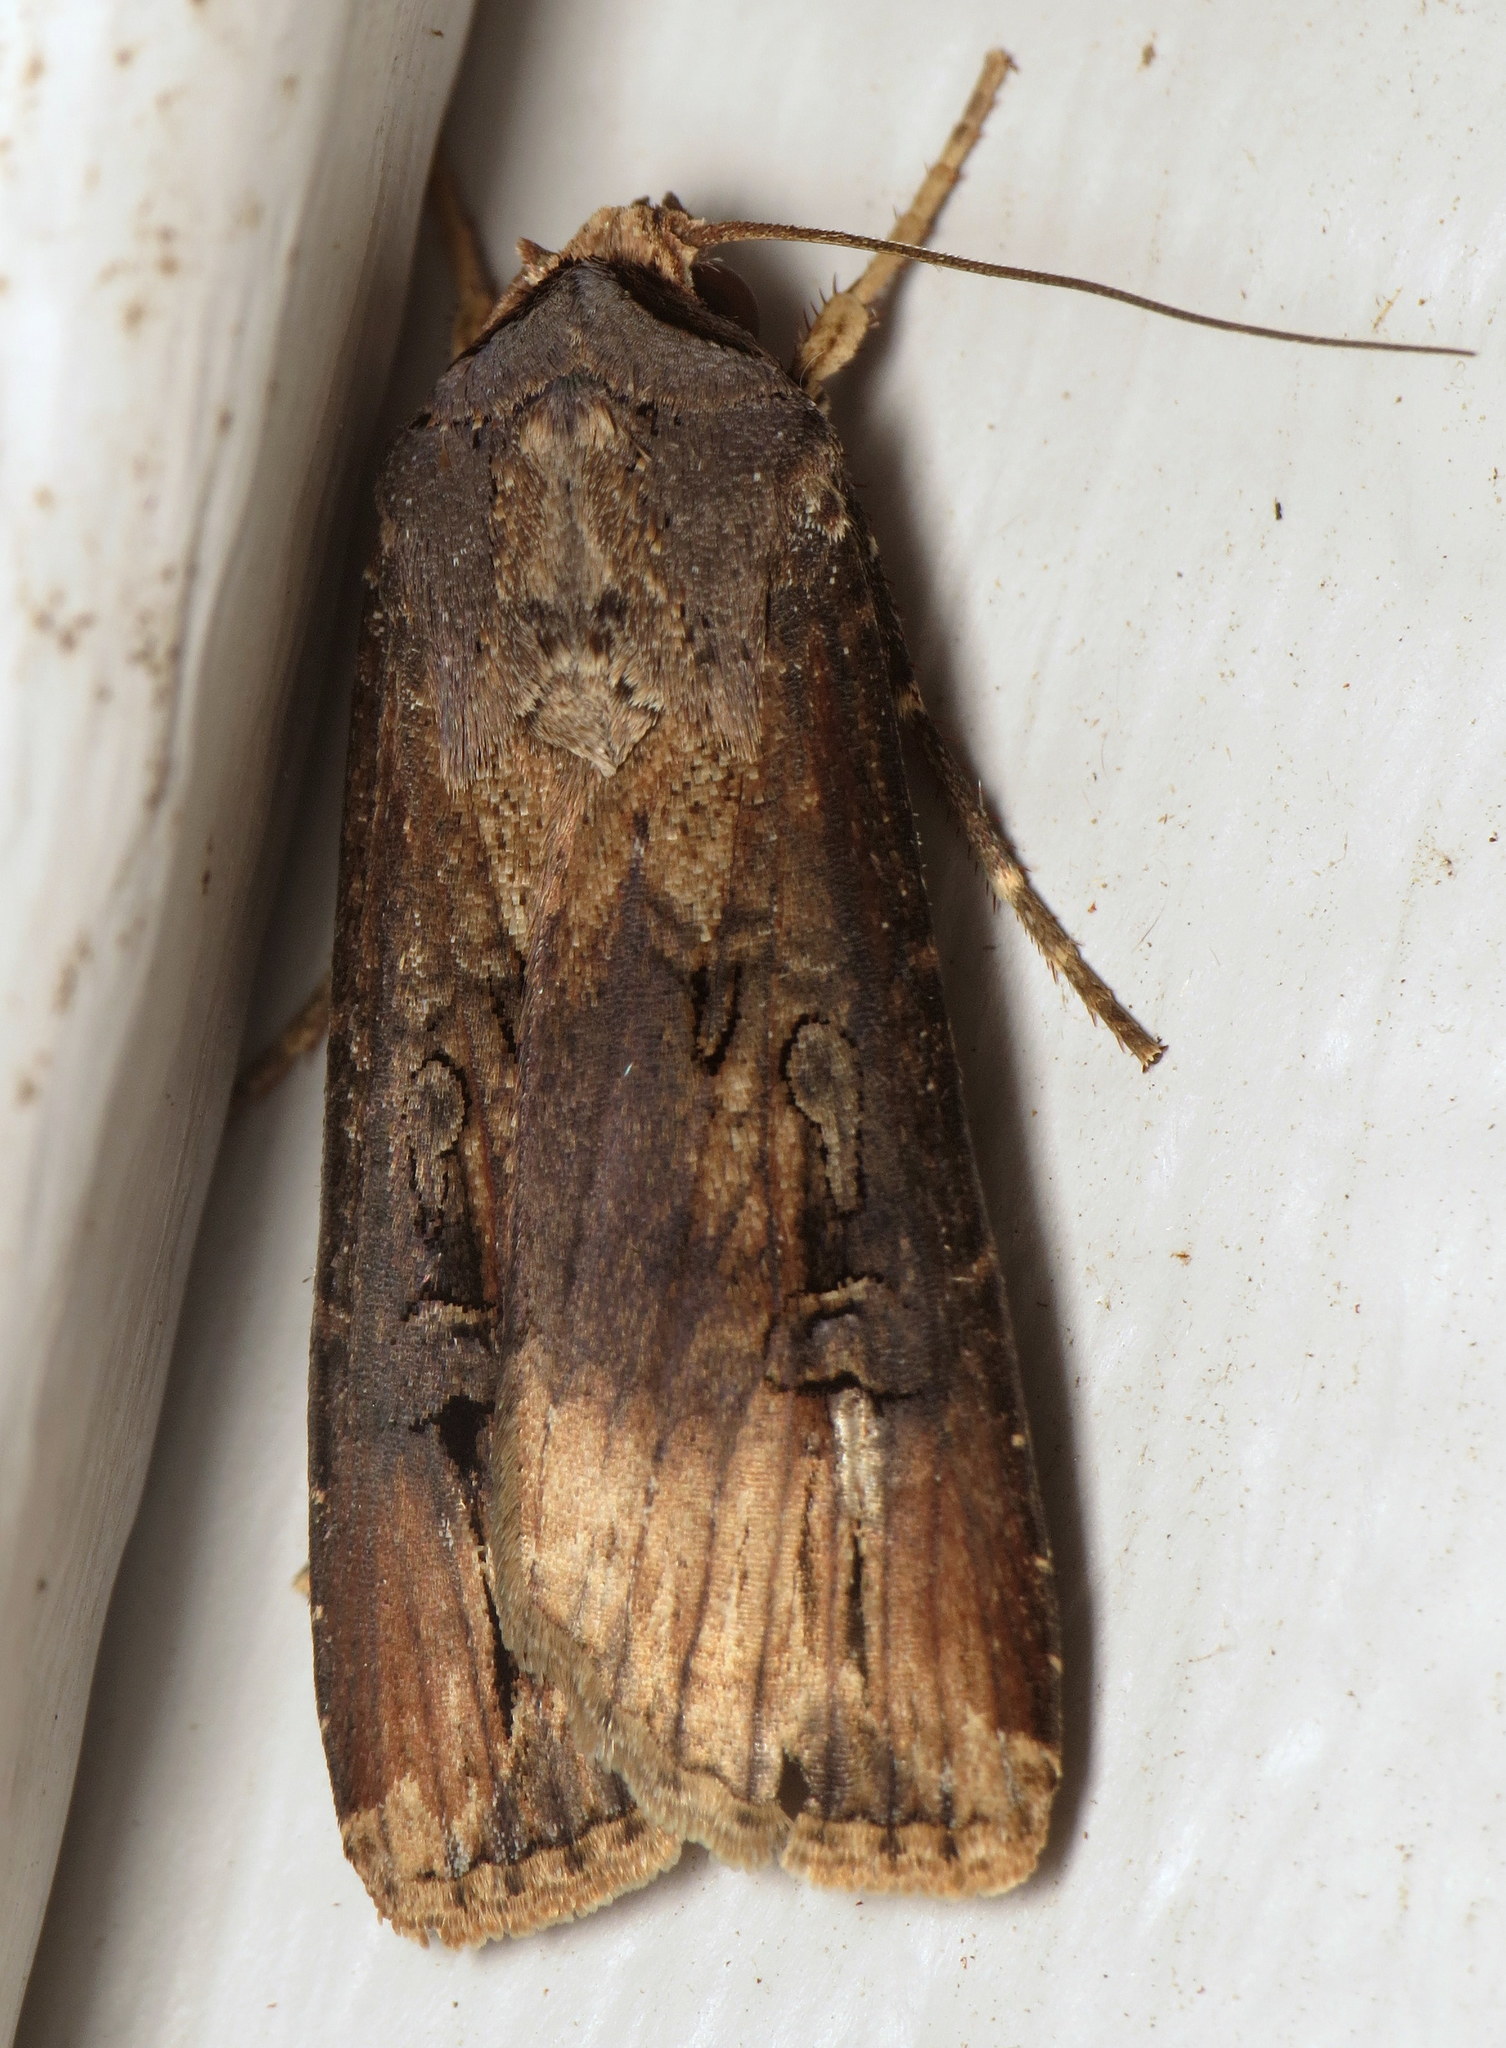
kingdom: Animalia
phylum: Arthropoda
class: Insecta
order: Lepidoptera
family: Noctuidae
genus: Agrotis
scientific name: Agrotis ipsilon
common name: Dark sword-grass
